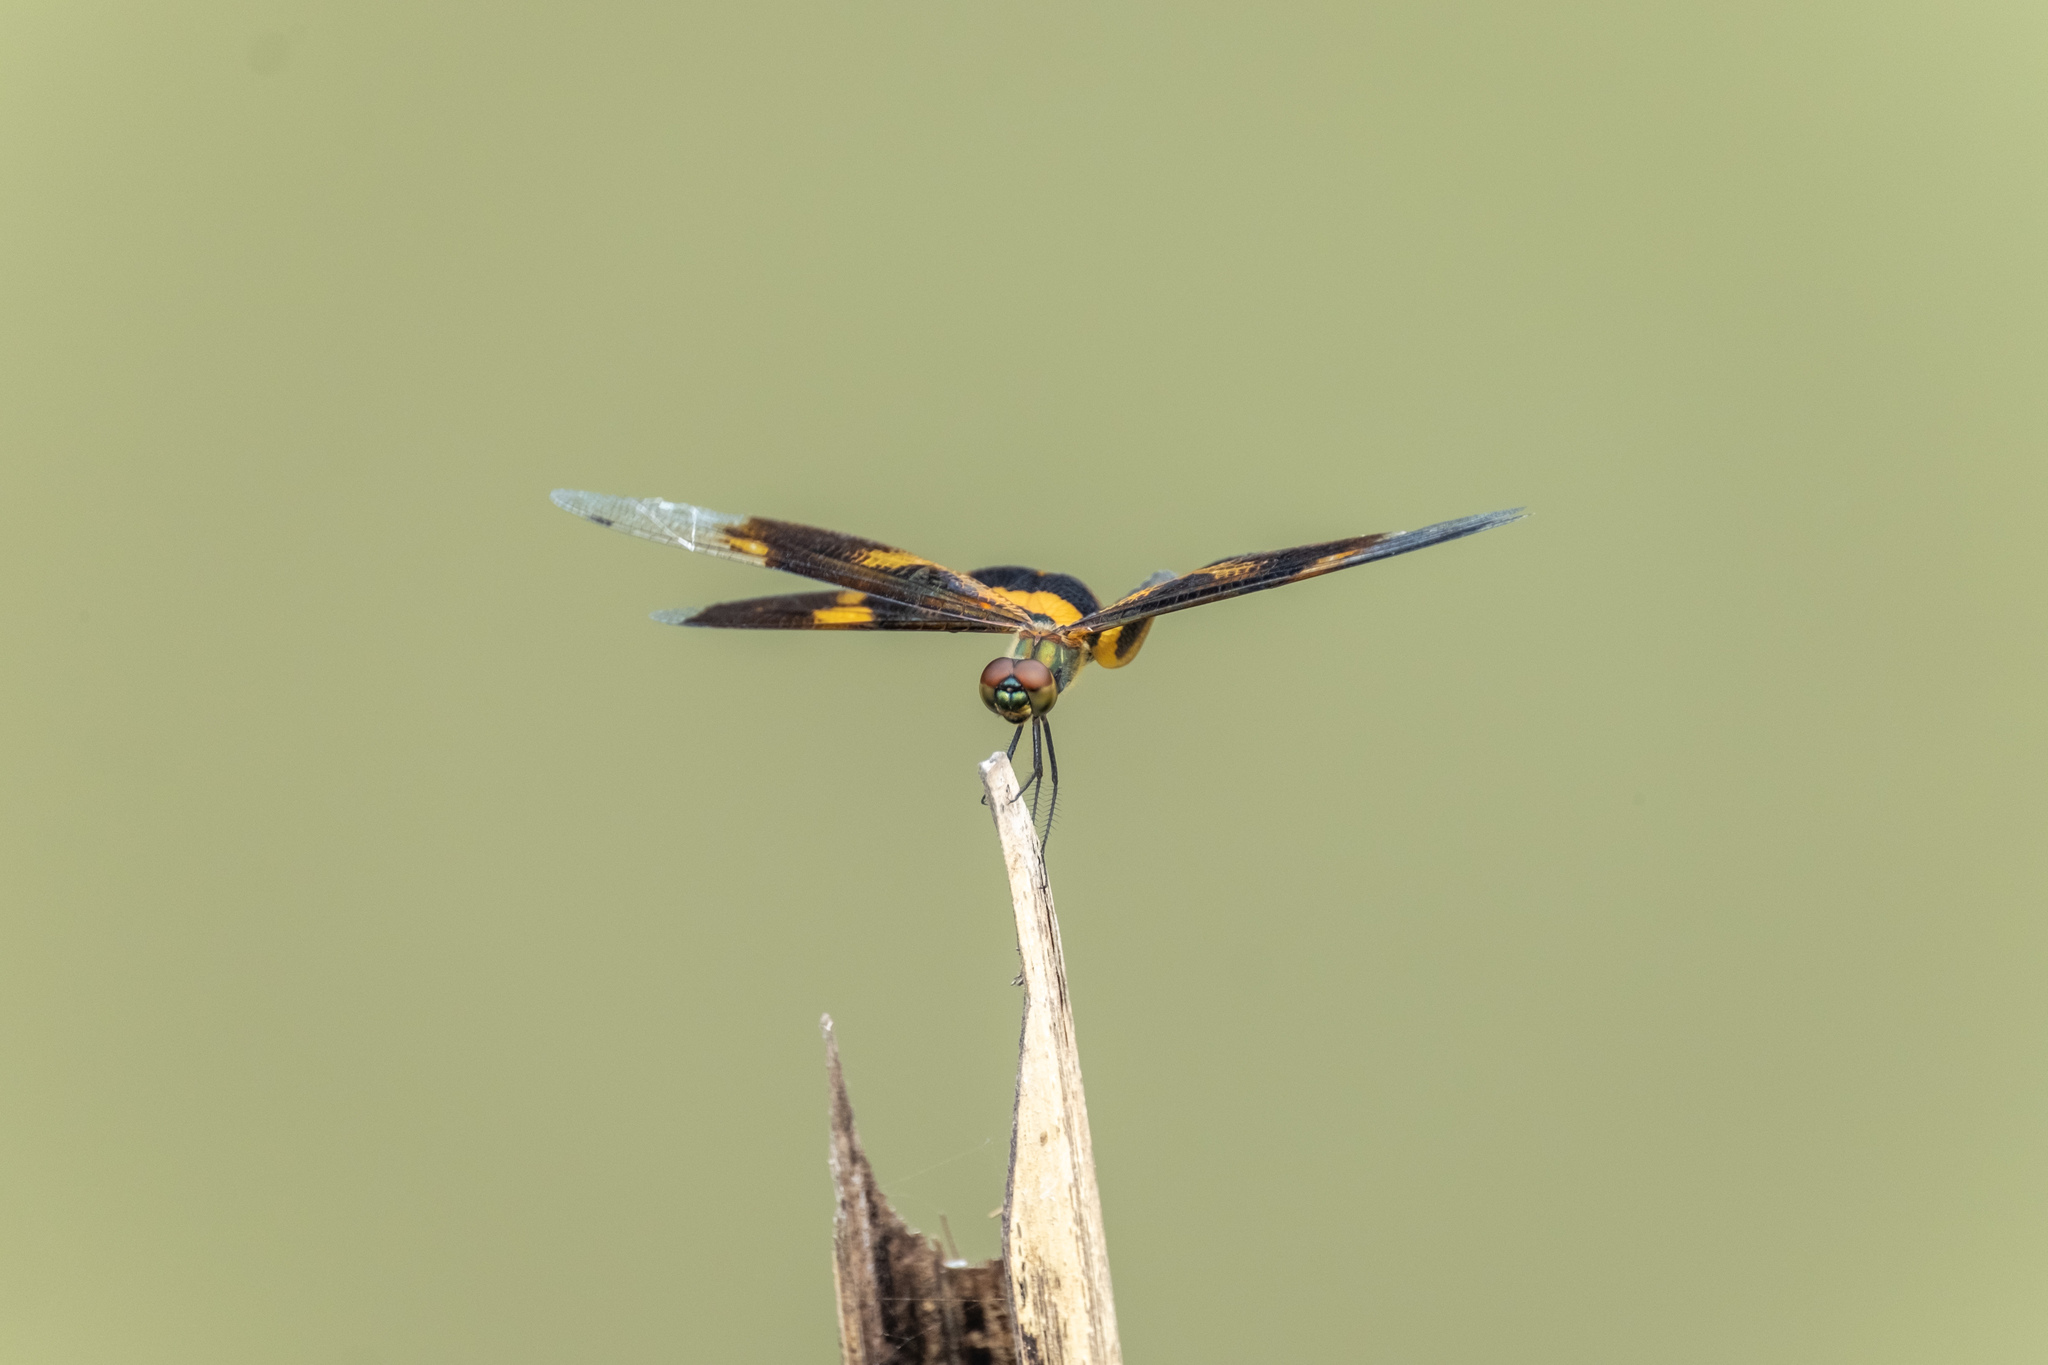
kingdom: Animalia
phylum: Arthropoda
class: Insecta
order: Odonata
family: Libellulidae
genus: Rhyothemis
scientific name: Rhyothemis variegata
